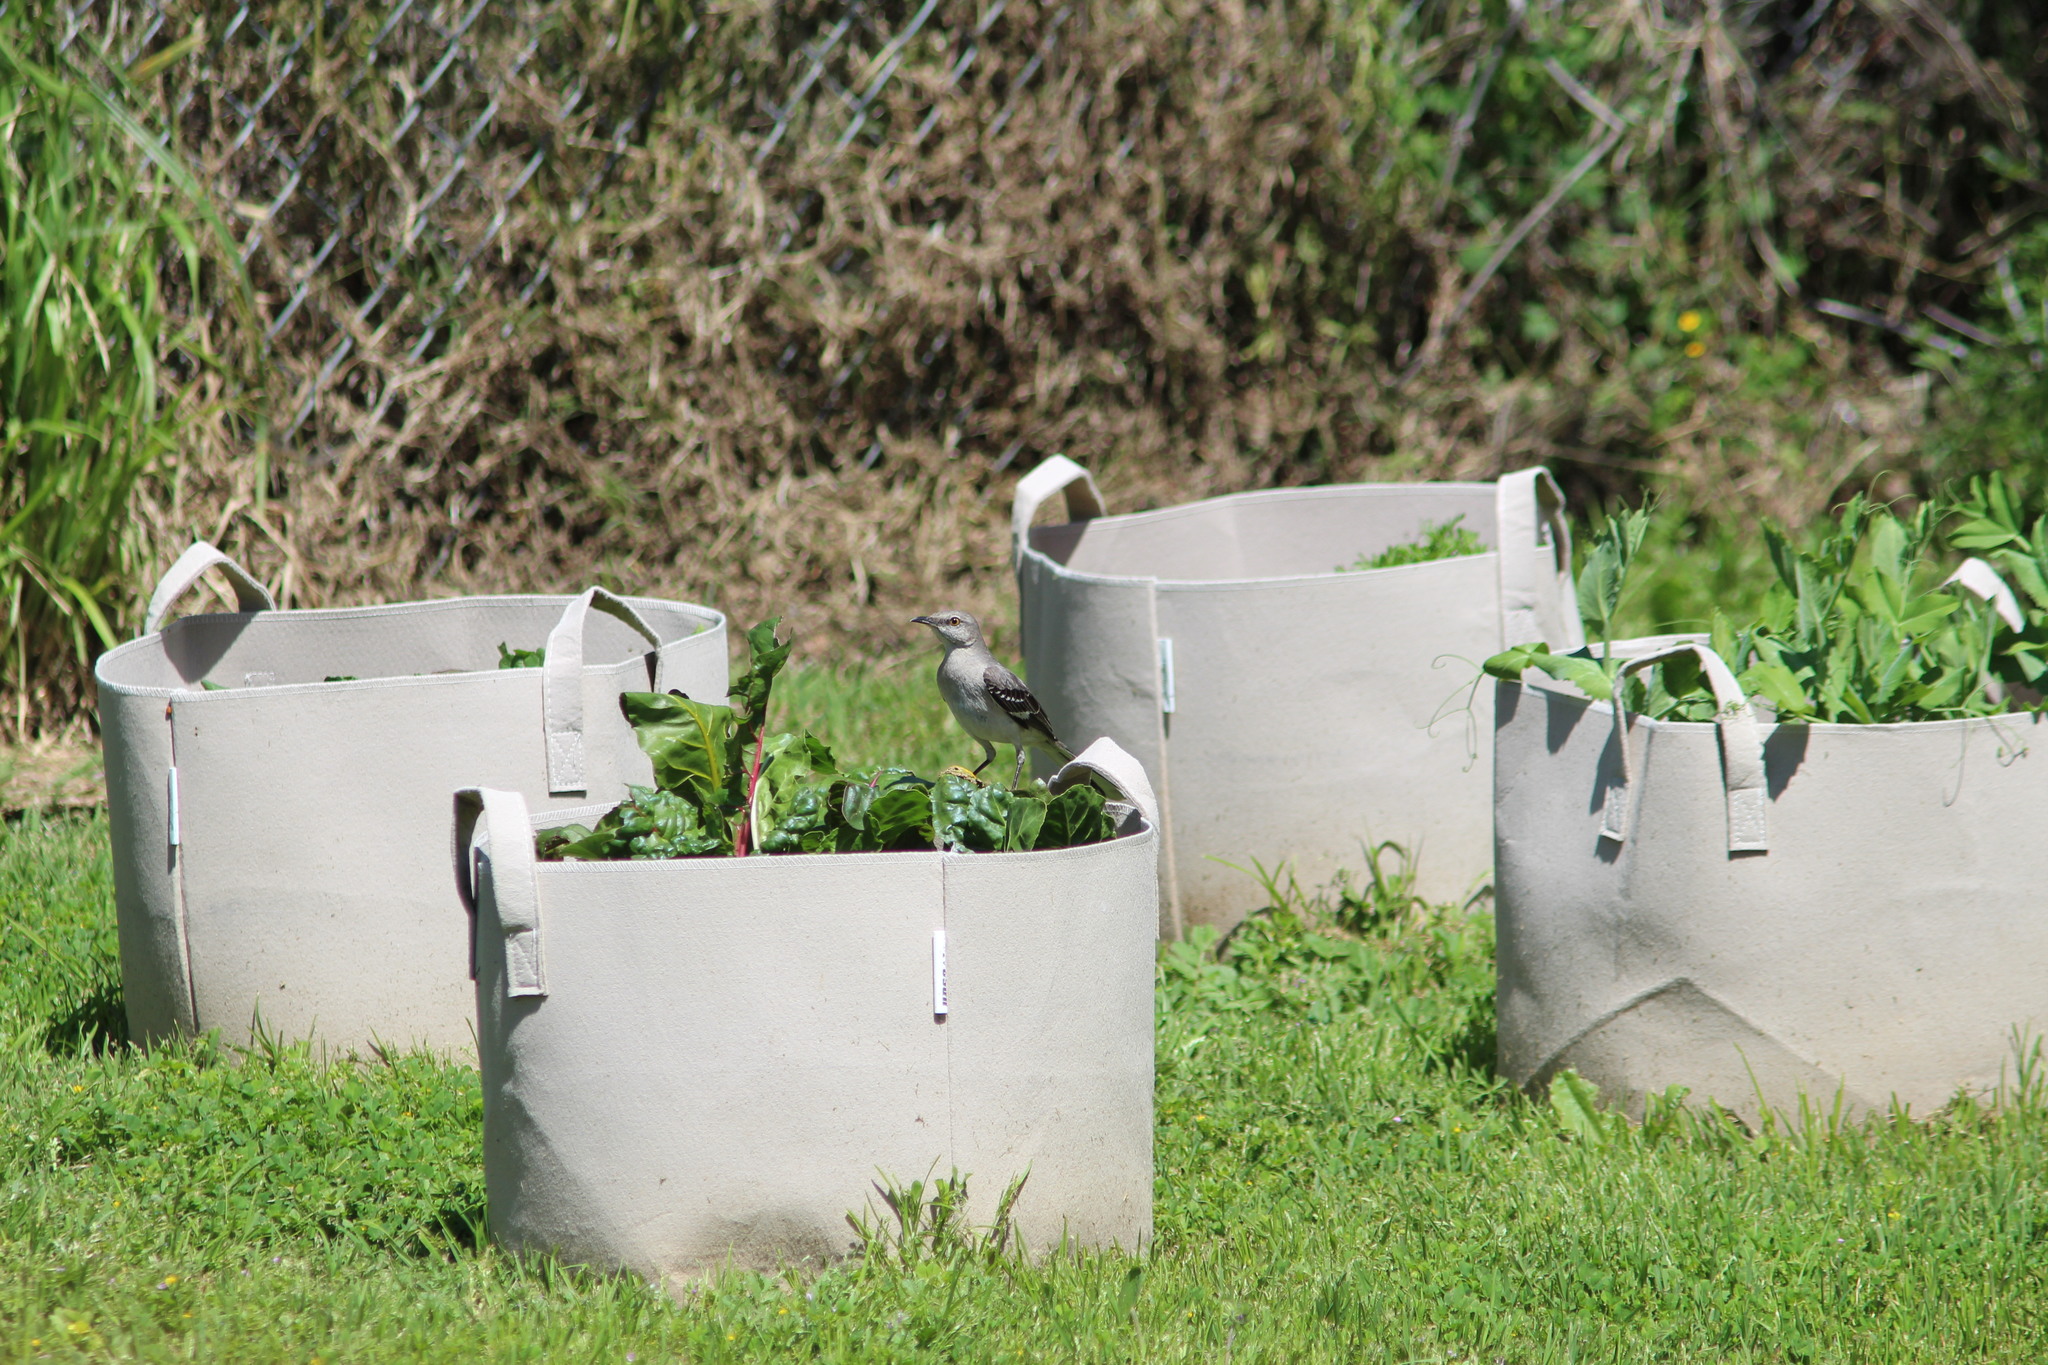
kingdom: Animalia
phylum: Chordata
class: Aves
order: Passeriformes
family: Mimidae
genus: Mimus
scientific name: Mimus polyglottos
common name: Northern mockingbird
